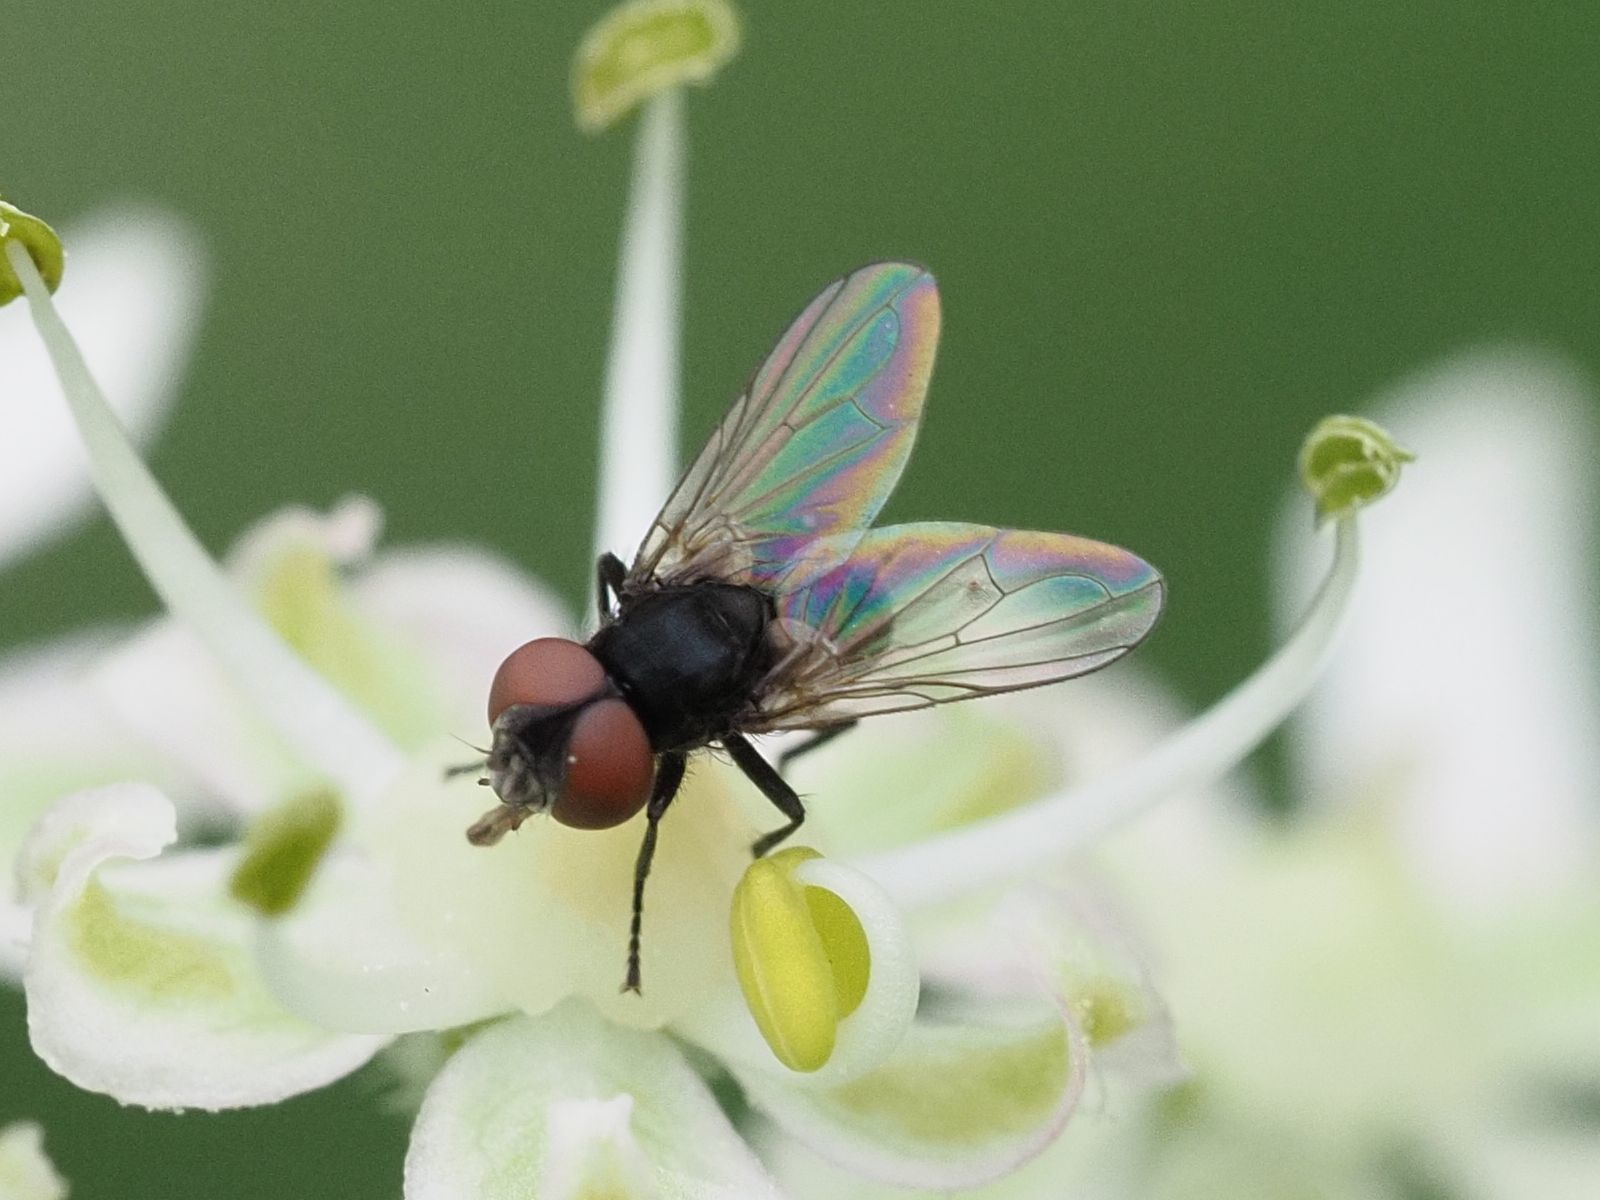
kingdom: Animalia
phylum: Arthropoda
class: Insecta
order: Diptera
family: Tachinidae
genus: Phasia
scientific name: Phasia barbifrons
